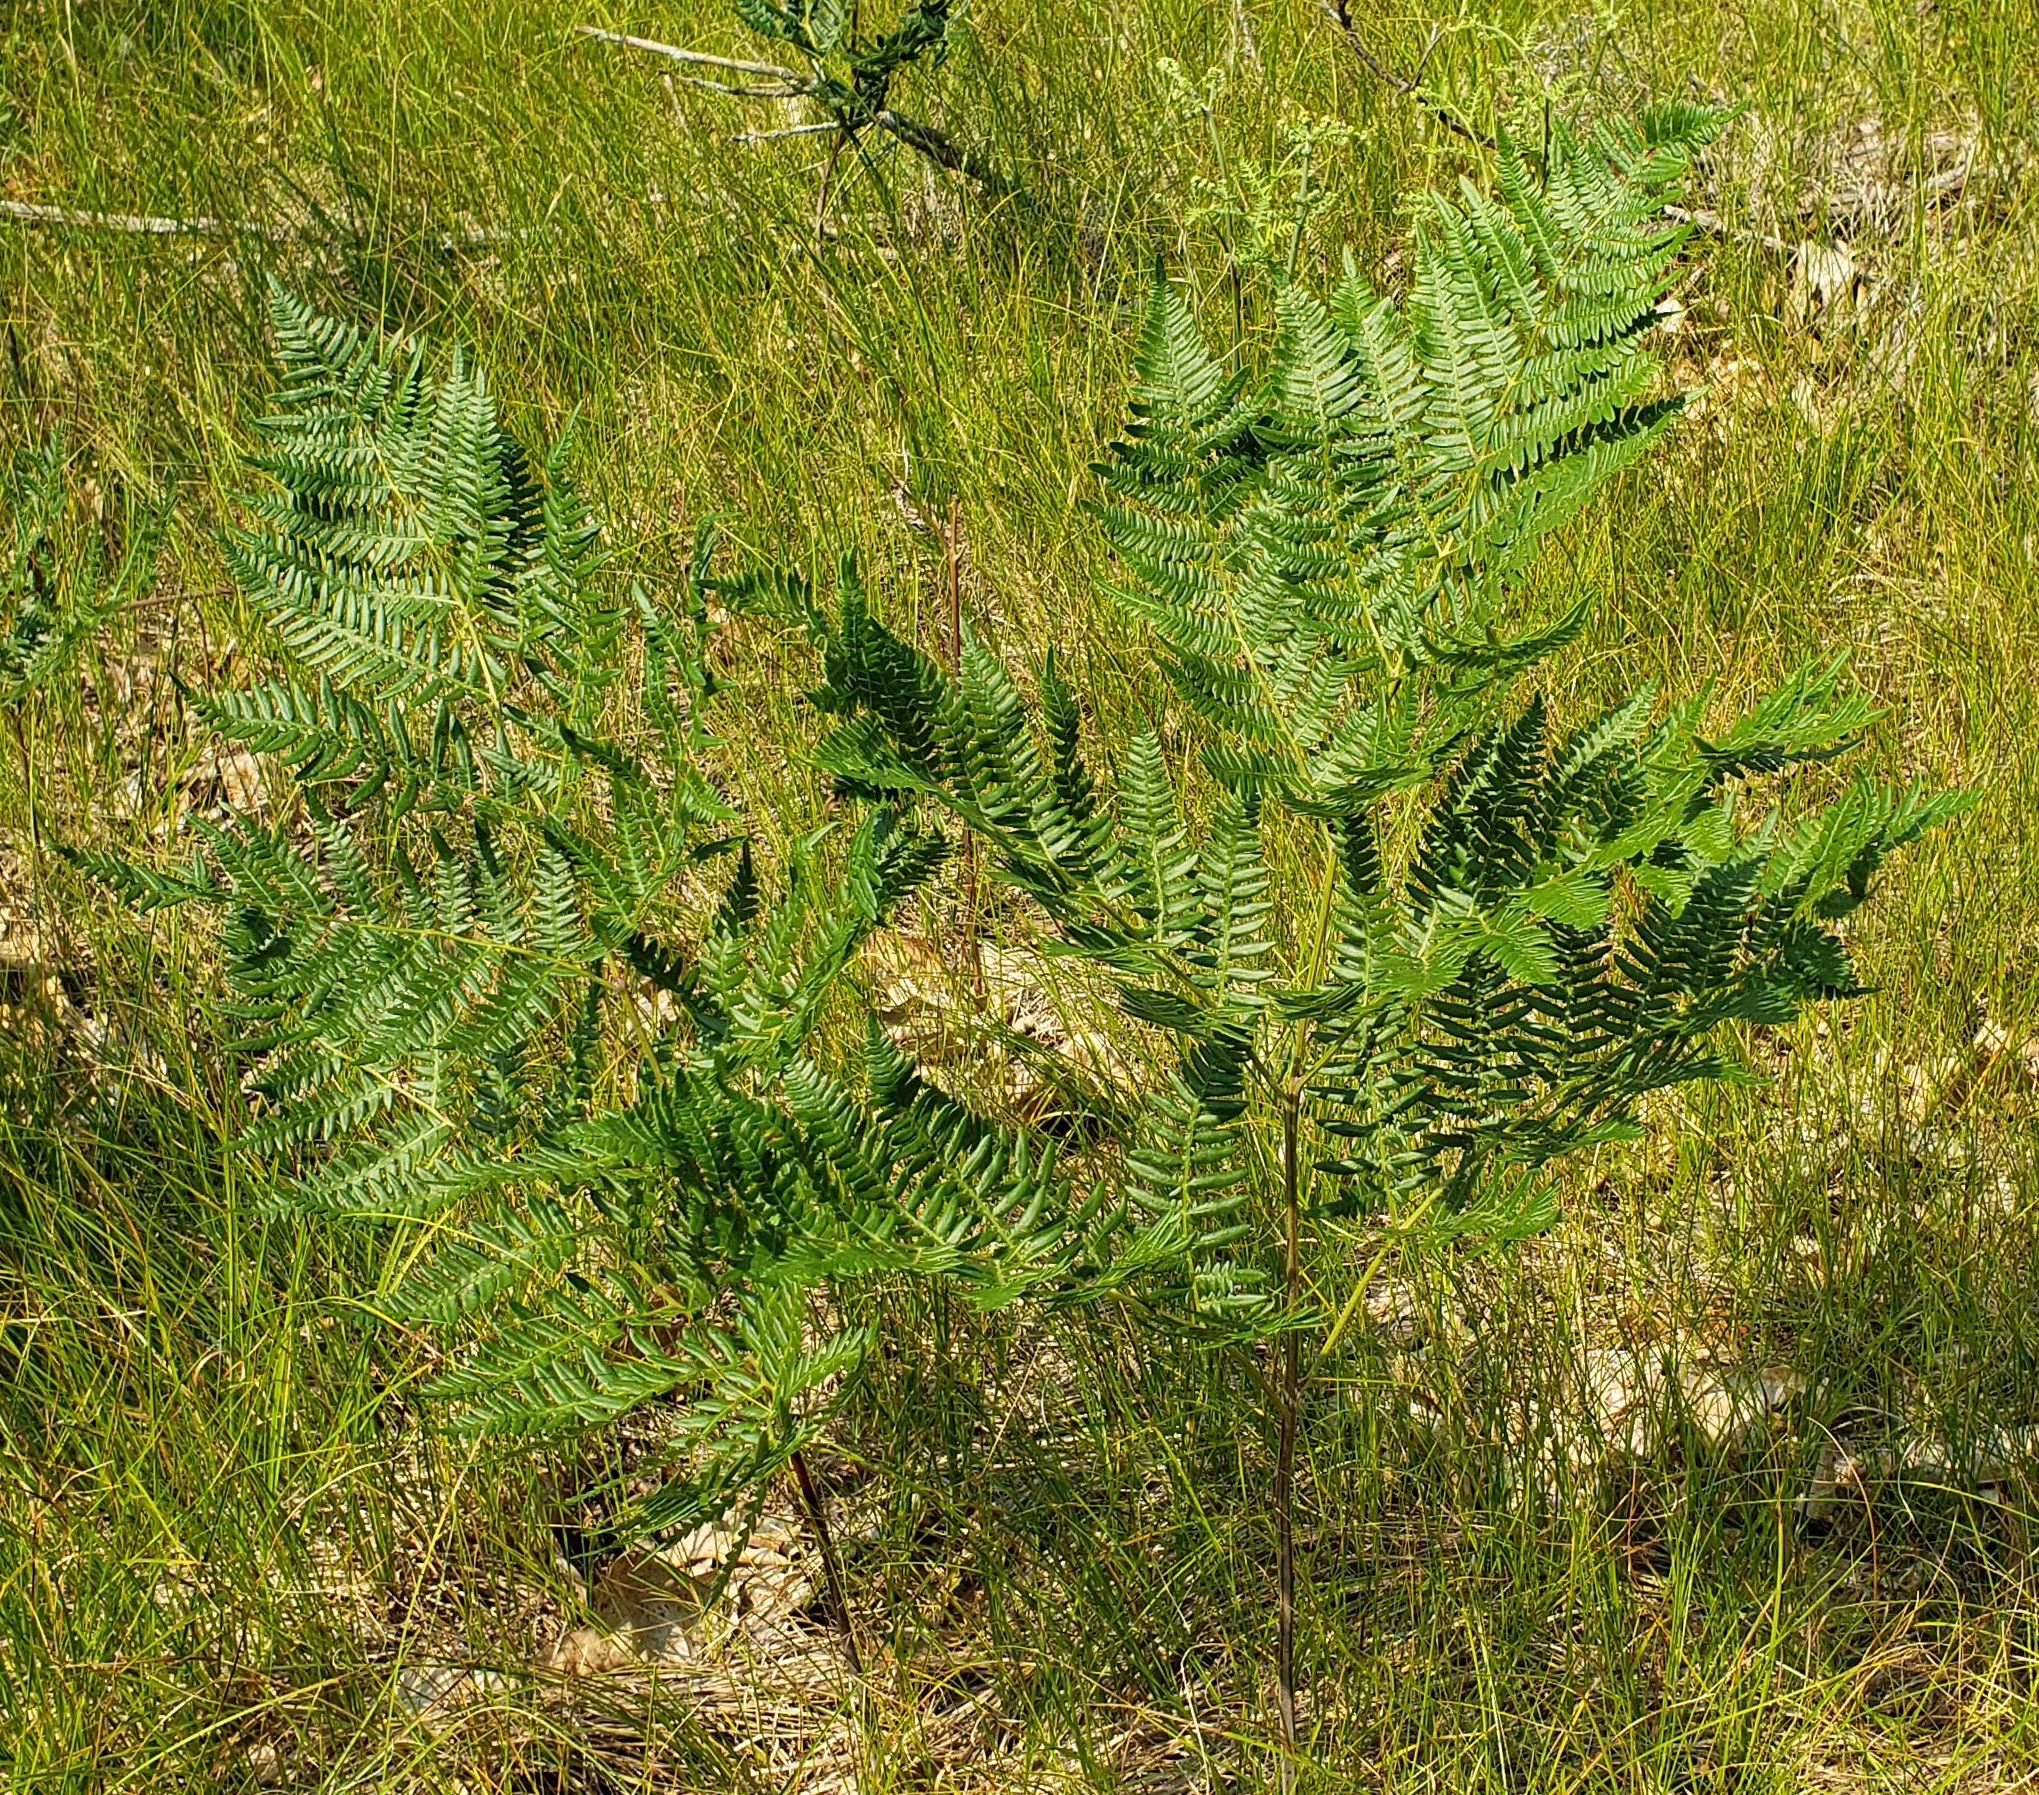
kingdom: Plantae
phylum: Tracheophyta
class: Polypodiopsida
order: Polypodiales
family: Dennstaedtiaceae
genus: Pteridium
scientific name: Pteridium aquilinum
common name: Bracken
